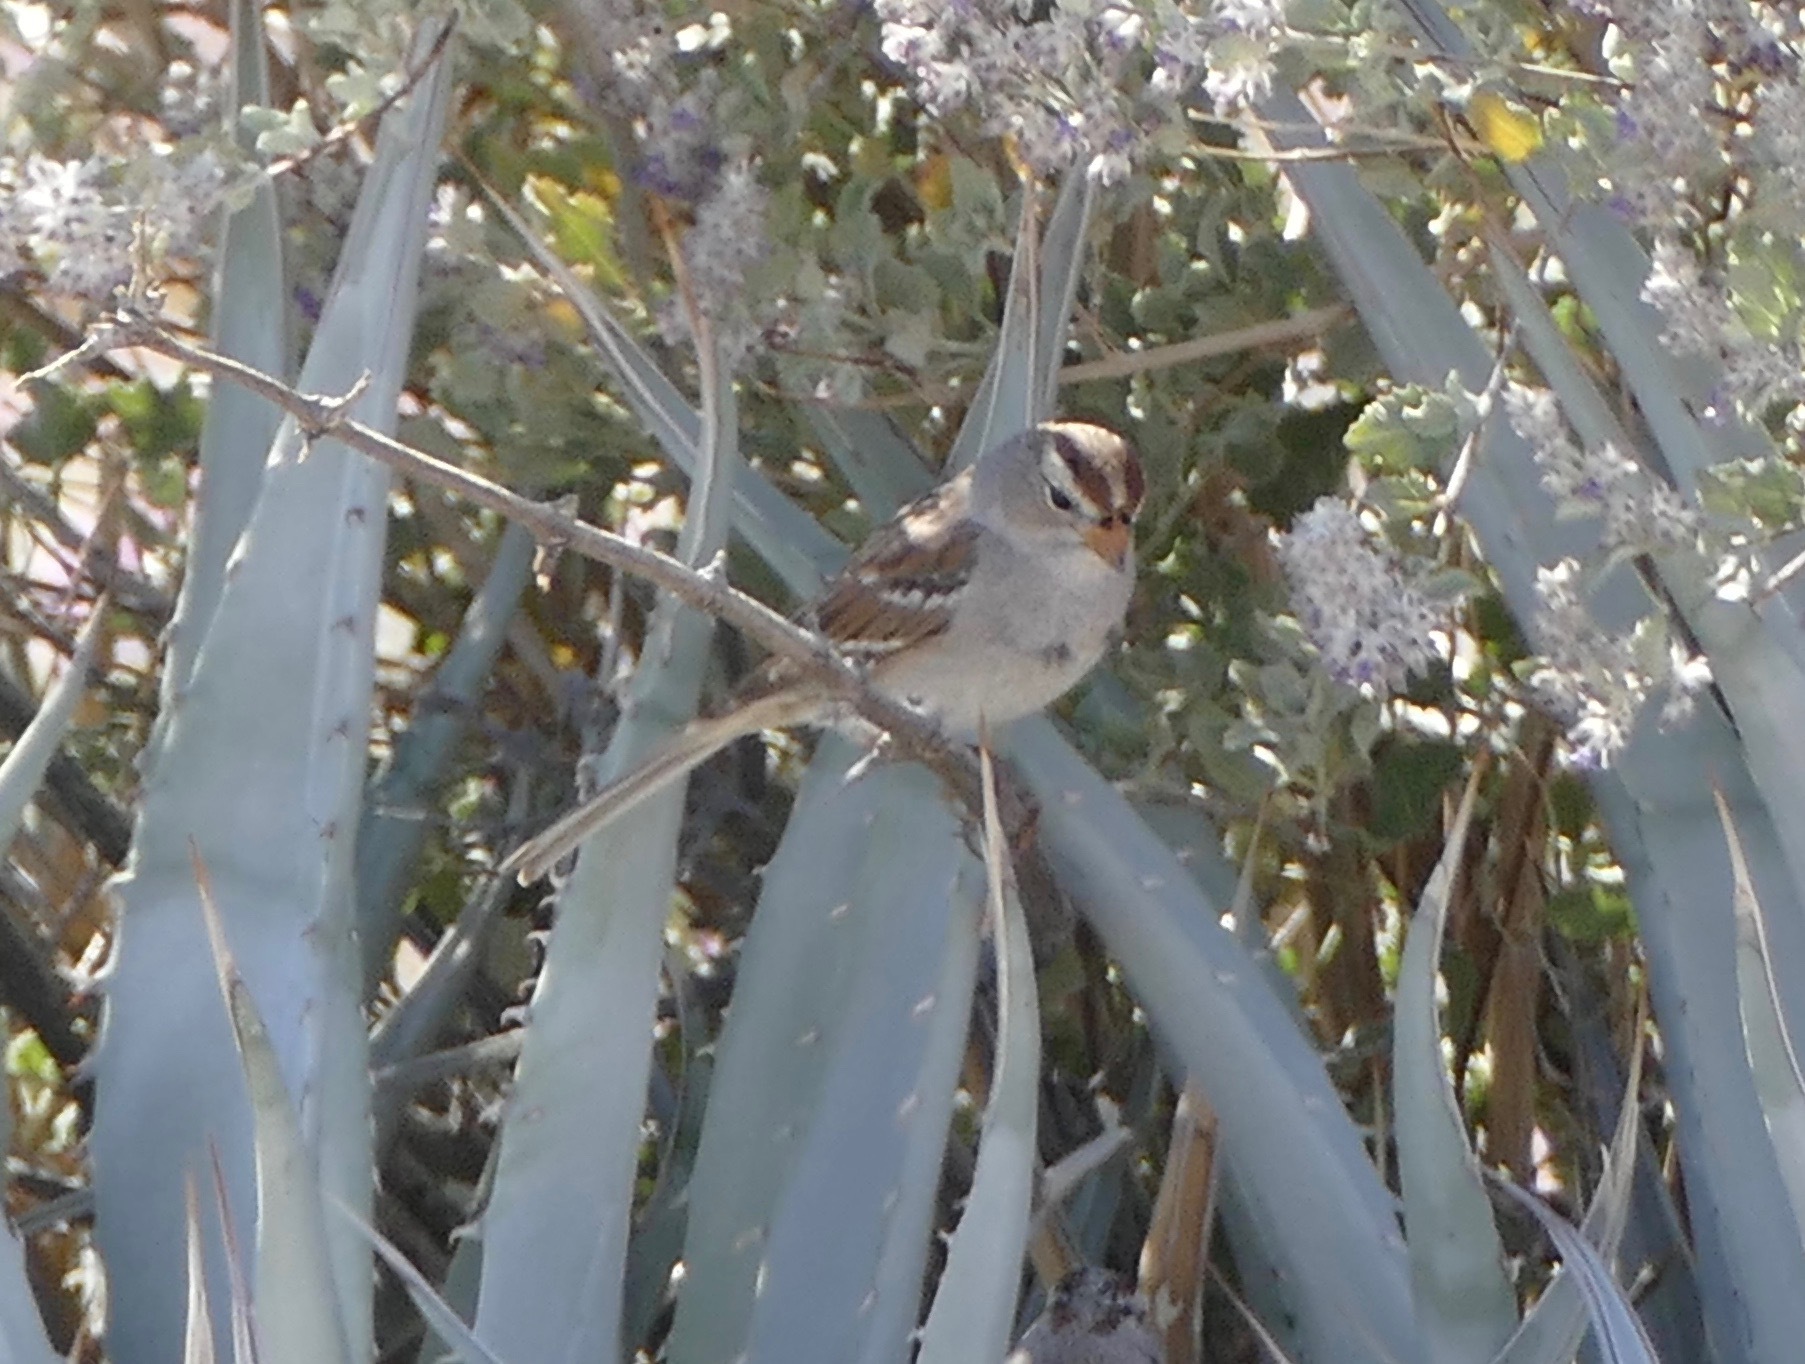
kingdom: Animalia
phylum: Chordata
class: Aves
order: Passeriformes
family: Passerellidae
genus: Zonotrichia
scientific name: Zonotrichia leucophrys
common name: White-crowned sparrow
